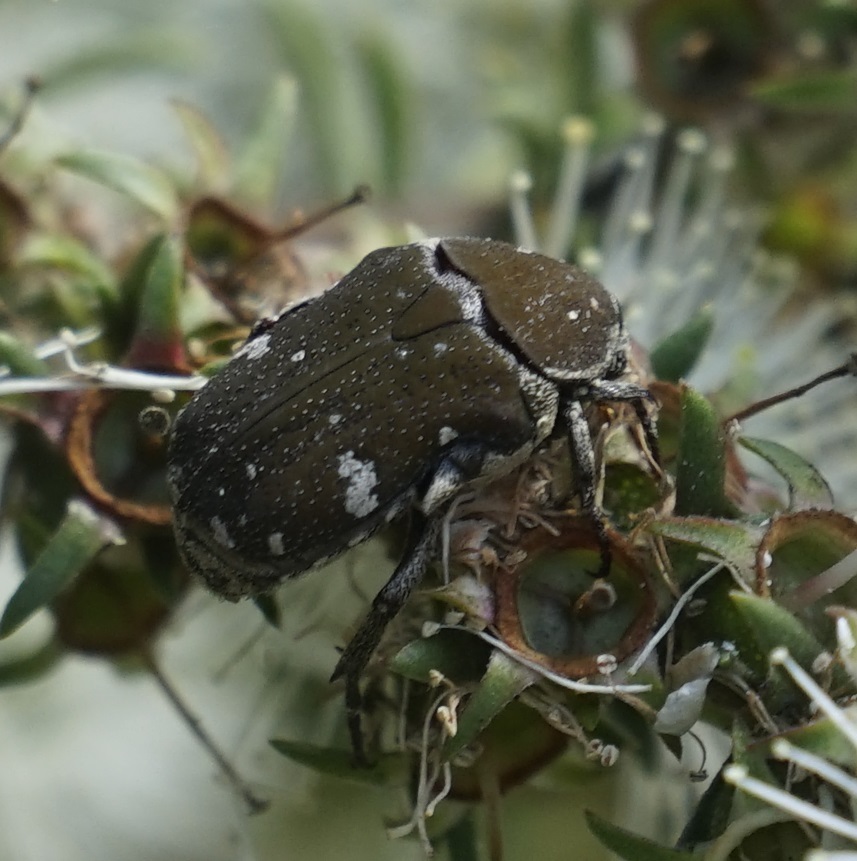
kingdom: Animalia
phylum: Arthropoda
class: Insecta
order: Coleoptera
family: Scarabaeidae
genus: Glycyphana
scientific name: Glycyphana stolata
